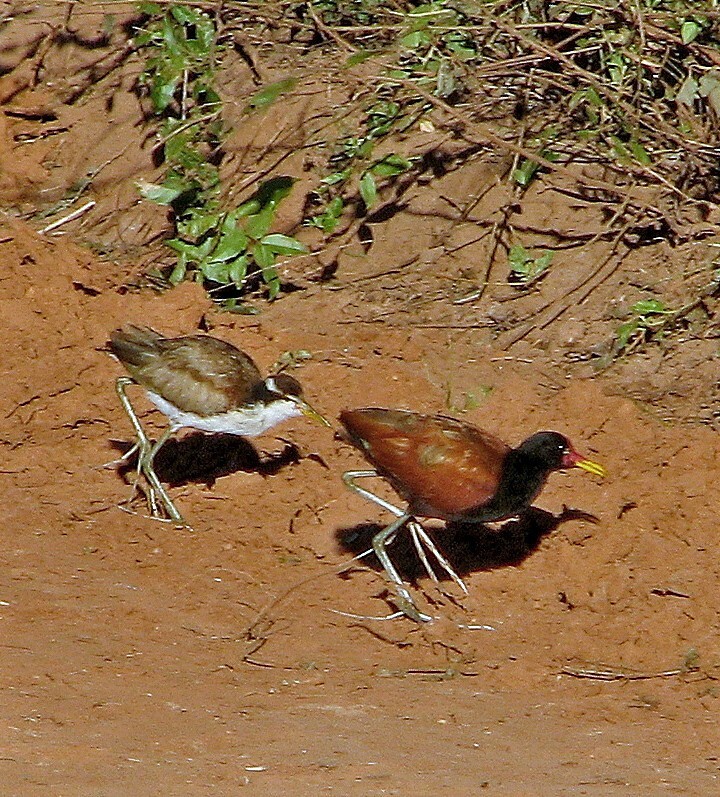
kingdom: Animalia
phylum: Chordata
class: Aves
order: Charadriiformes
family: Jacanidae
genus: Jacana
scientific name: Jacana jacana
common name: Wattled jacana
